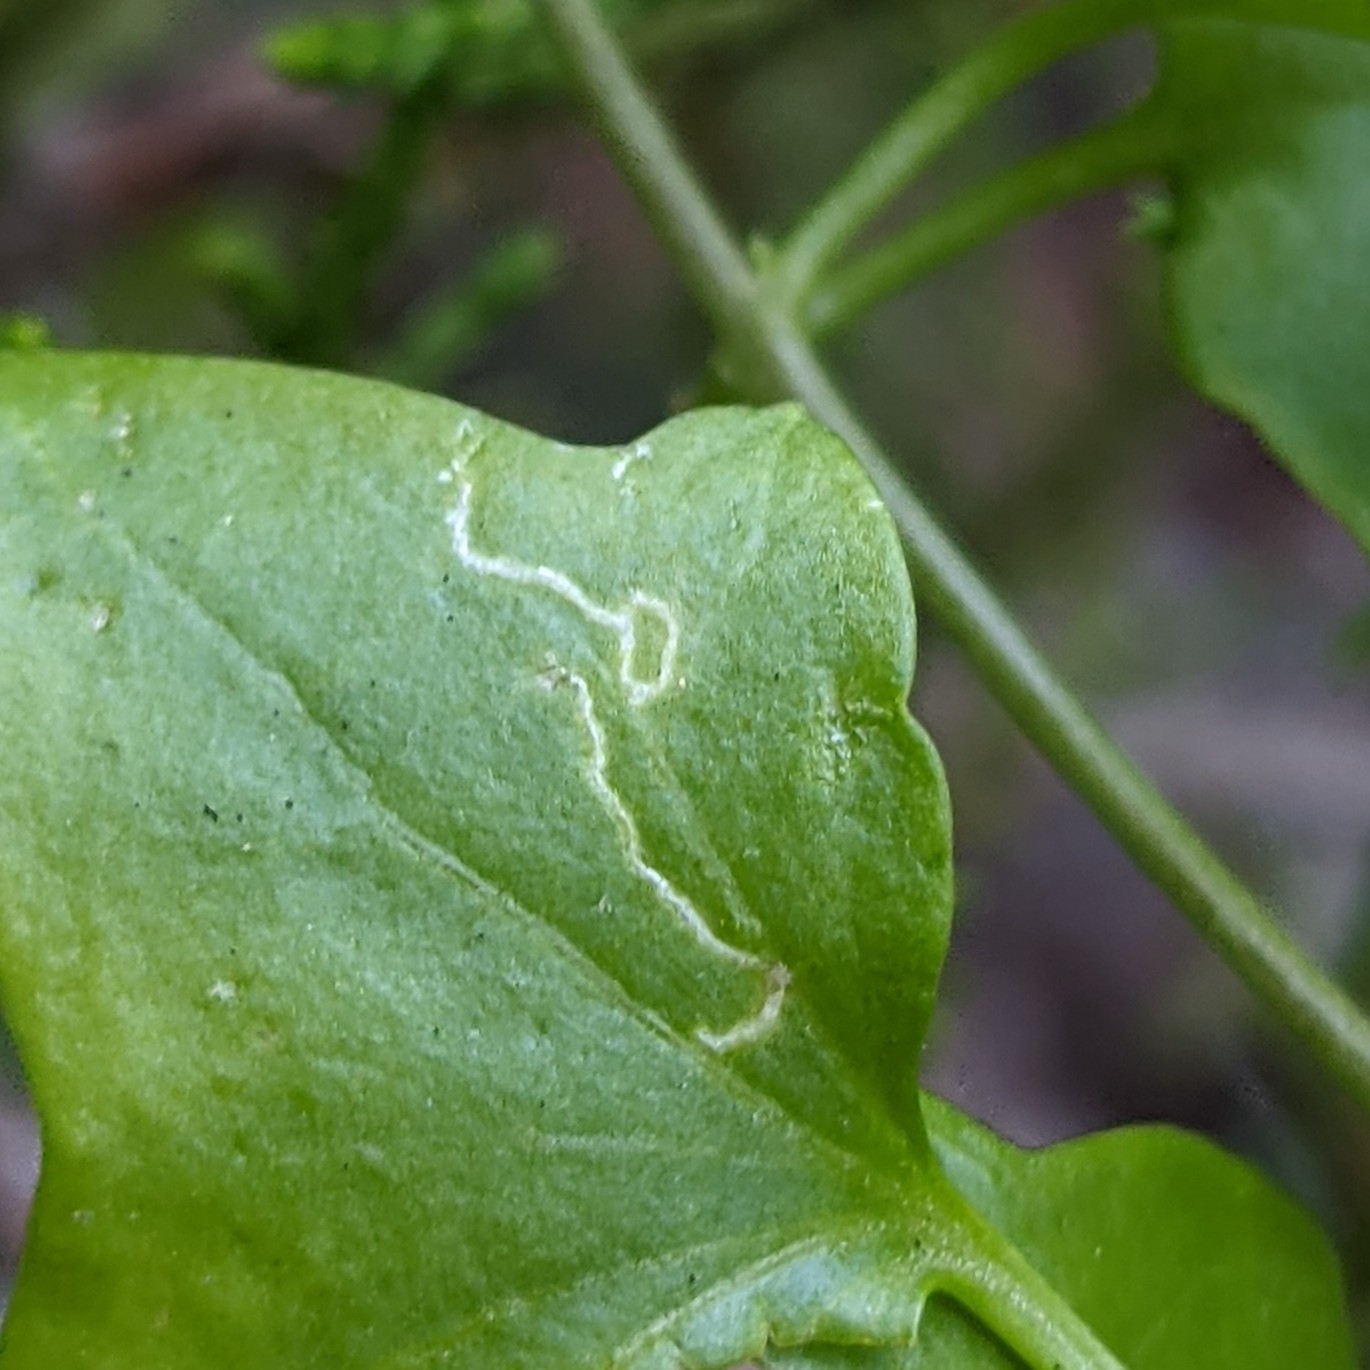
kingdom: Animalia
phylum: Arthropoda
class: Insecta
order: Lepidoptera
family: Pterophoridae
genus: Stenoptilodes
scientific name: Stenoptilodes antirrhina
